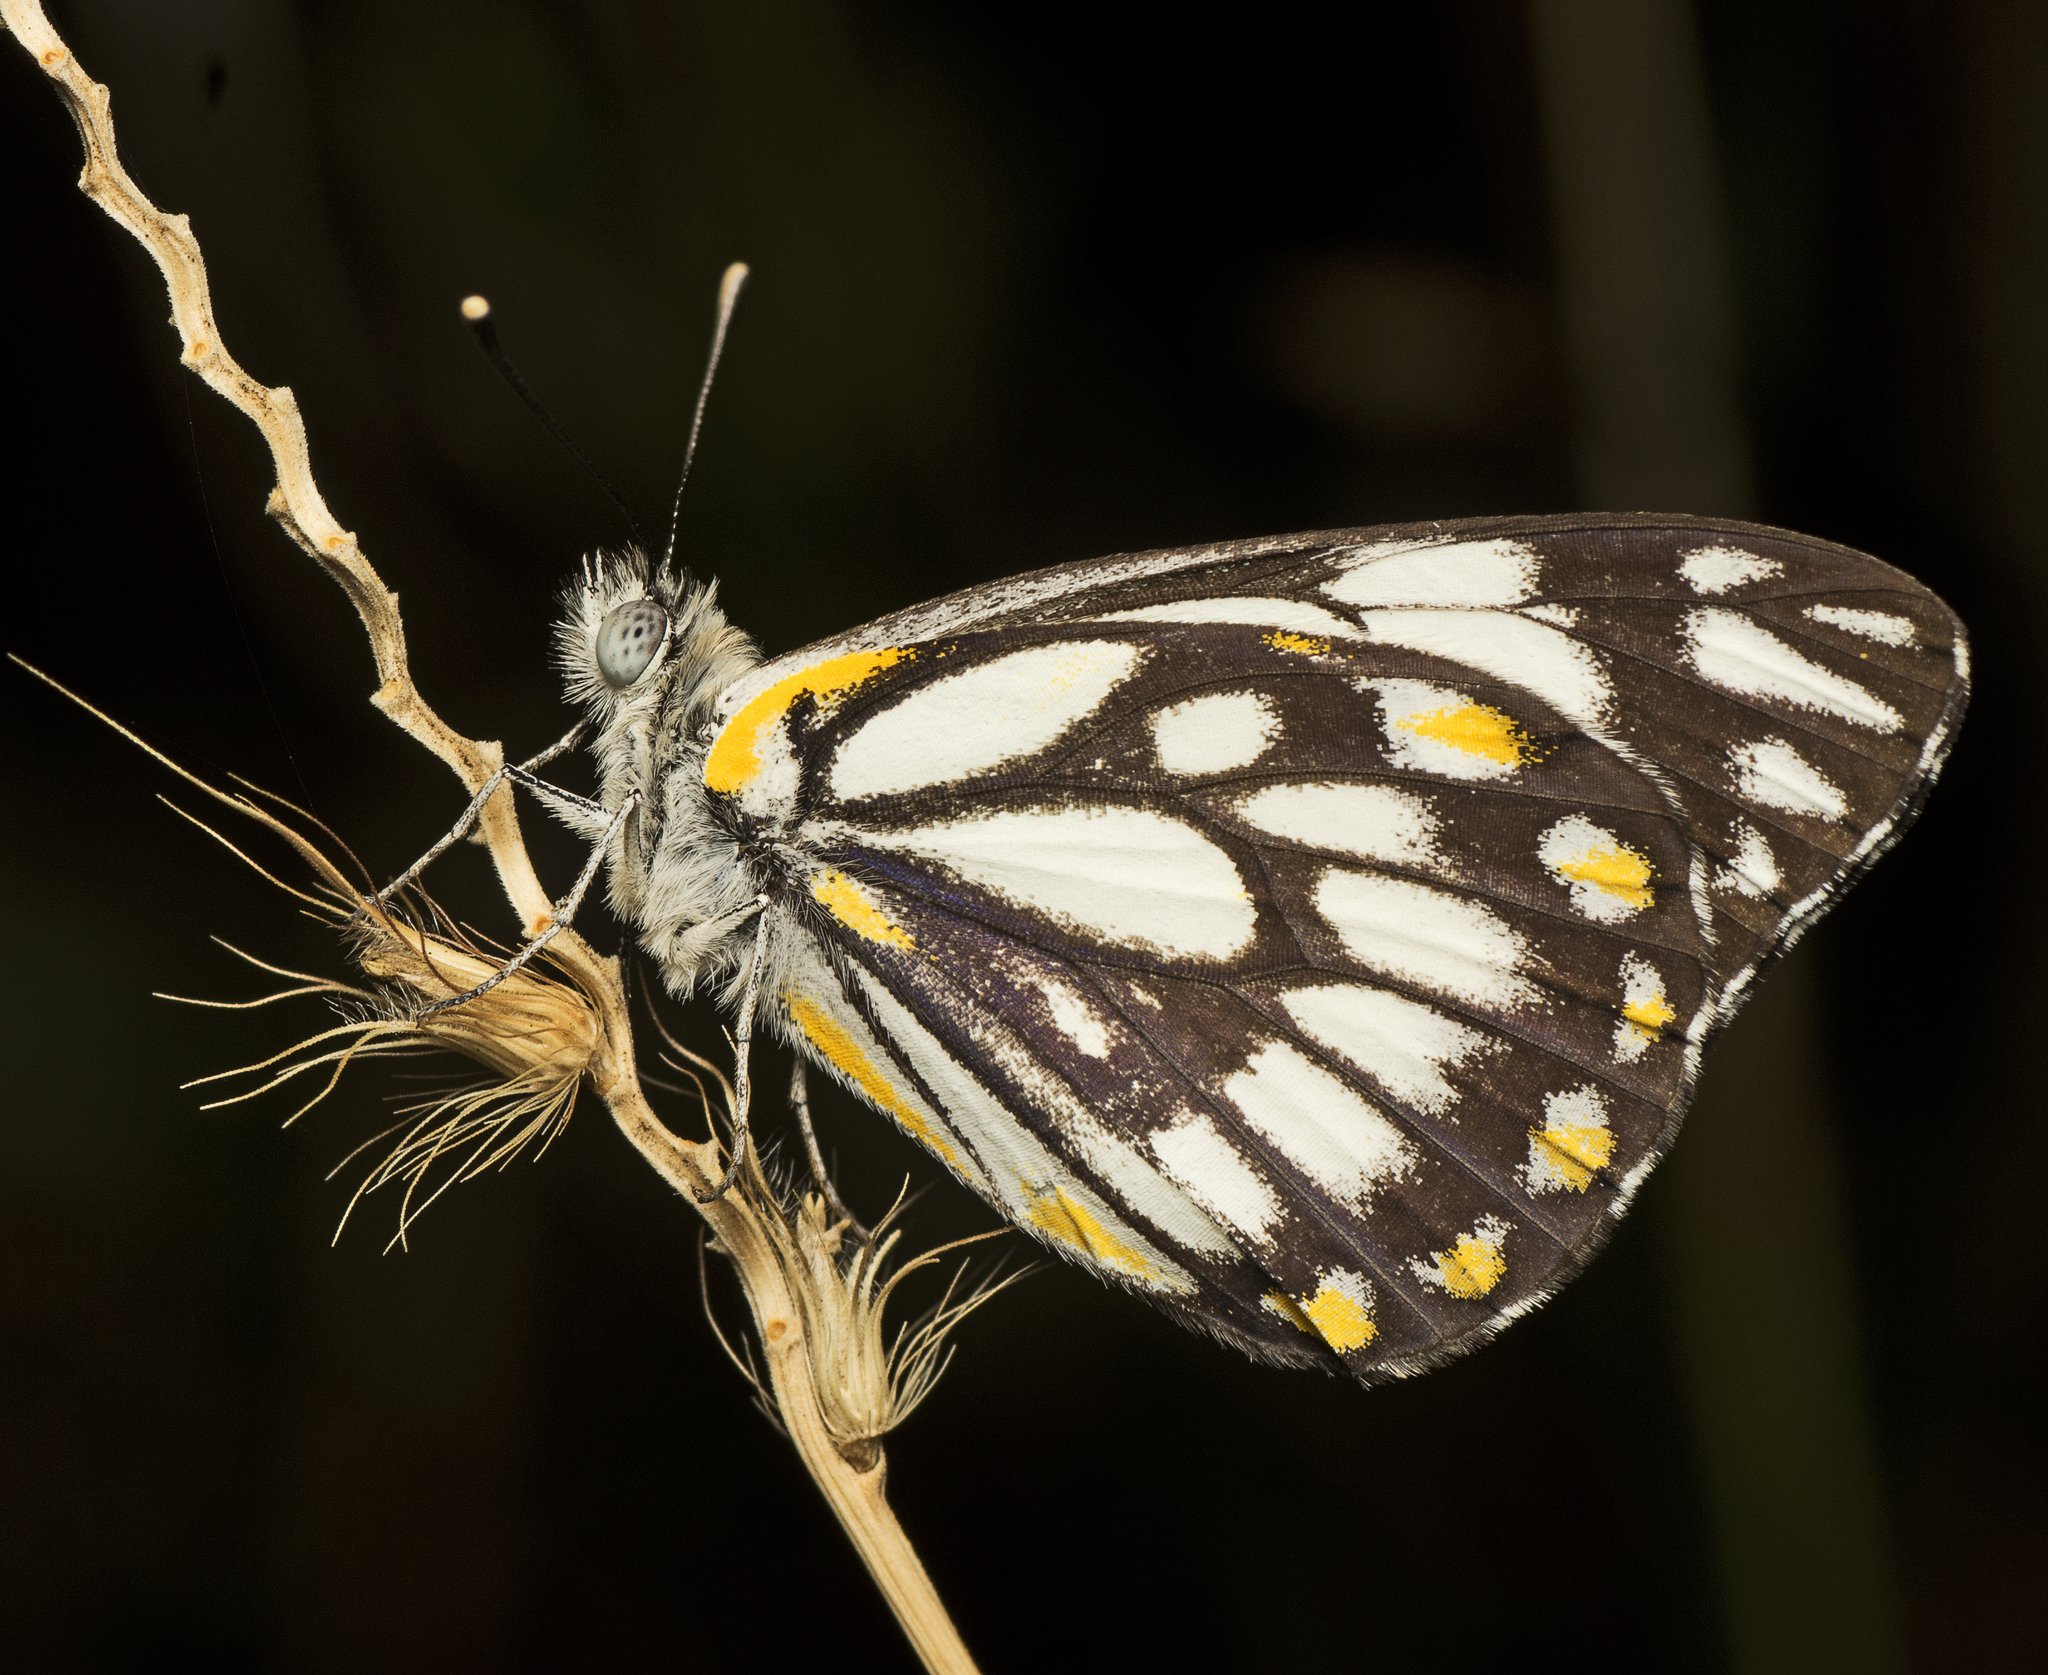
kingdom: Animalia
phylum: Arthropoda
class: Insecta
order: Lepidoptera
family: Pieridae
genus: Belenois
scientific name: Belenois java
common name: Caper white
